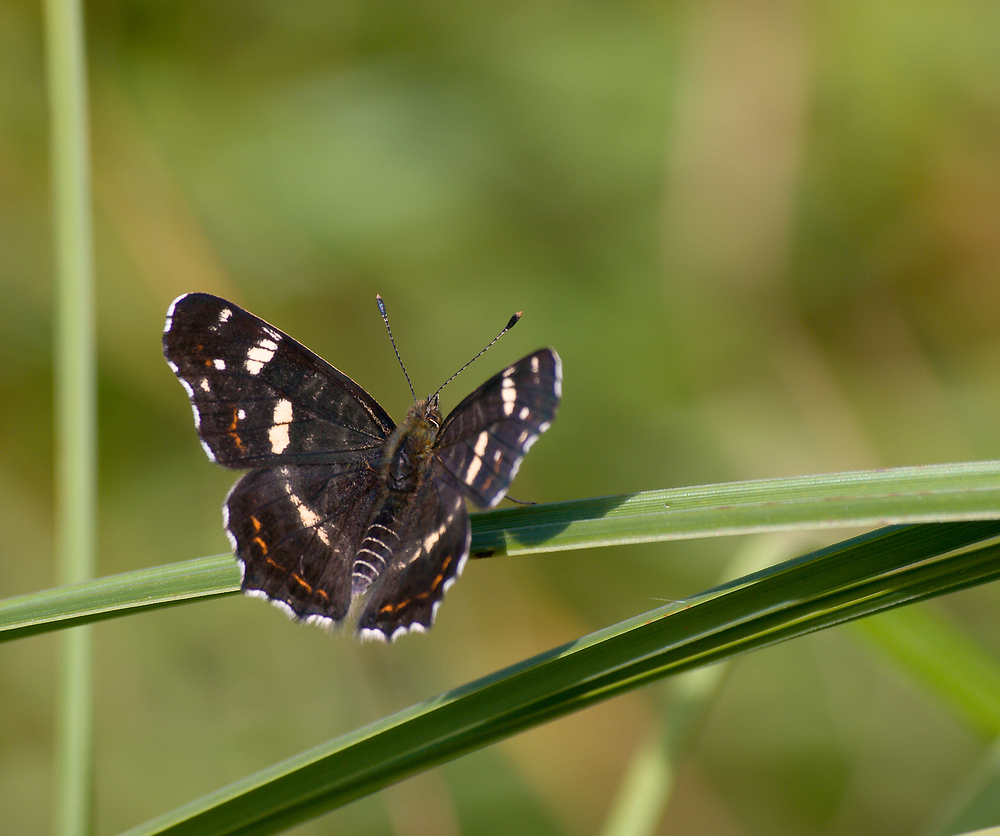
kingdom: Animalia
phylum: Arthropoda
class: Insecta
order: Lepidoptera
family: Nymphalidae
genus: Araschnia
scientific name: Araschnia levana
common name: Map butterfly
